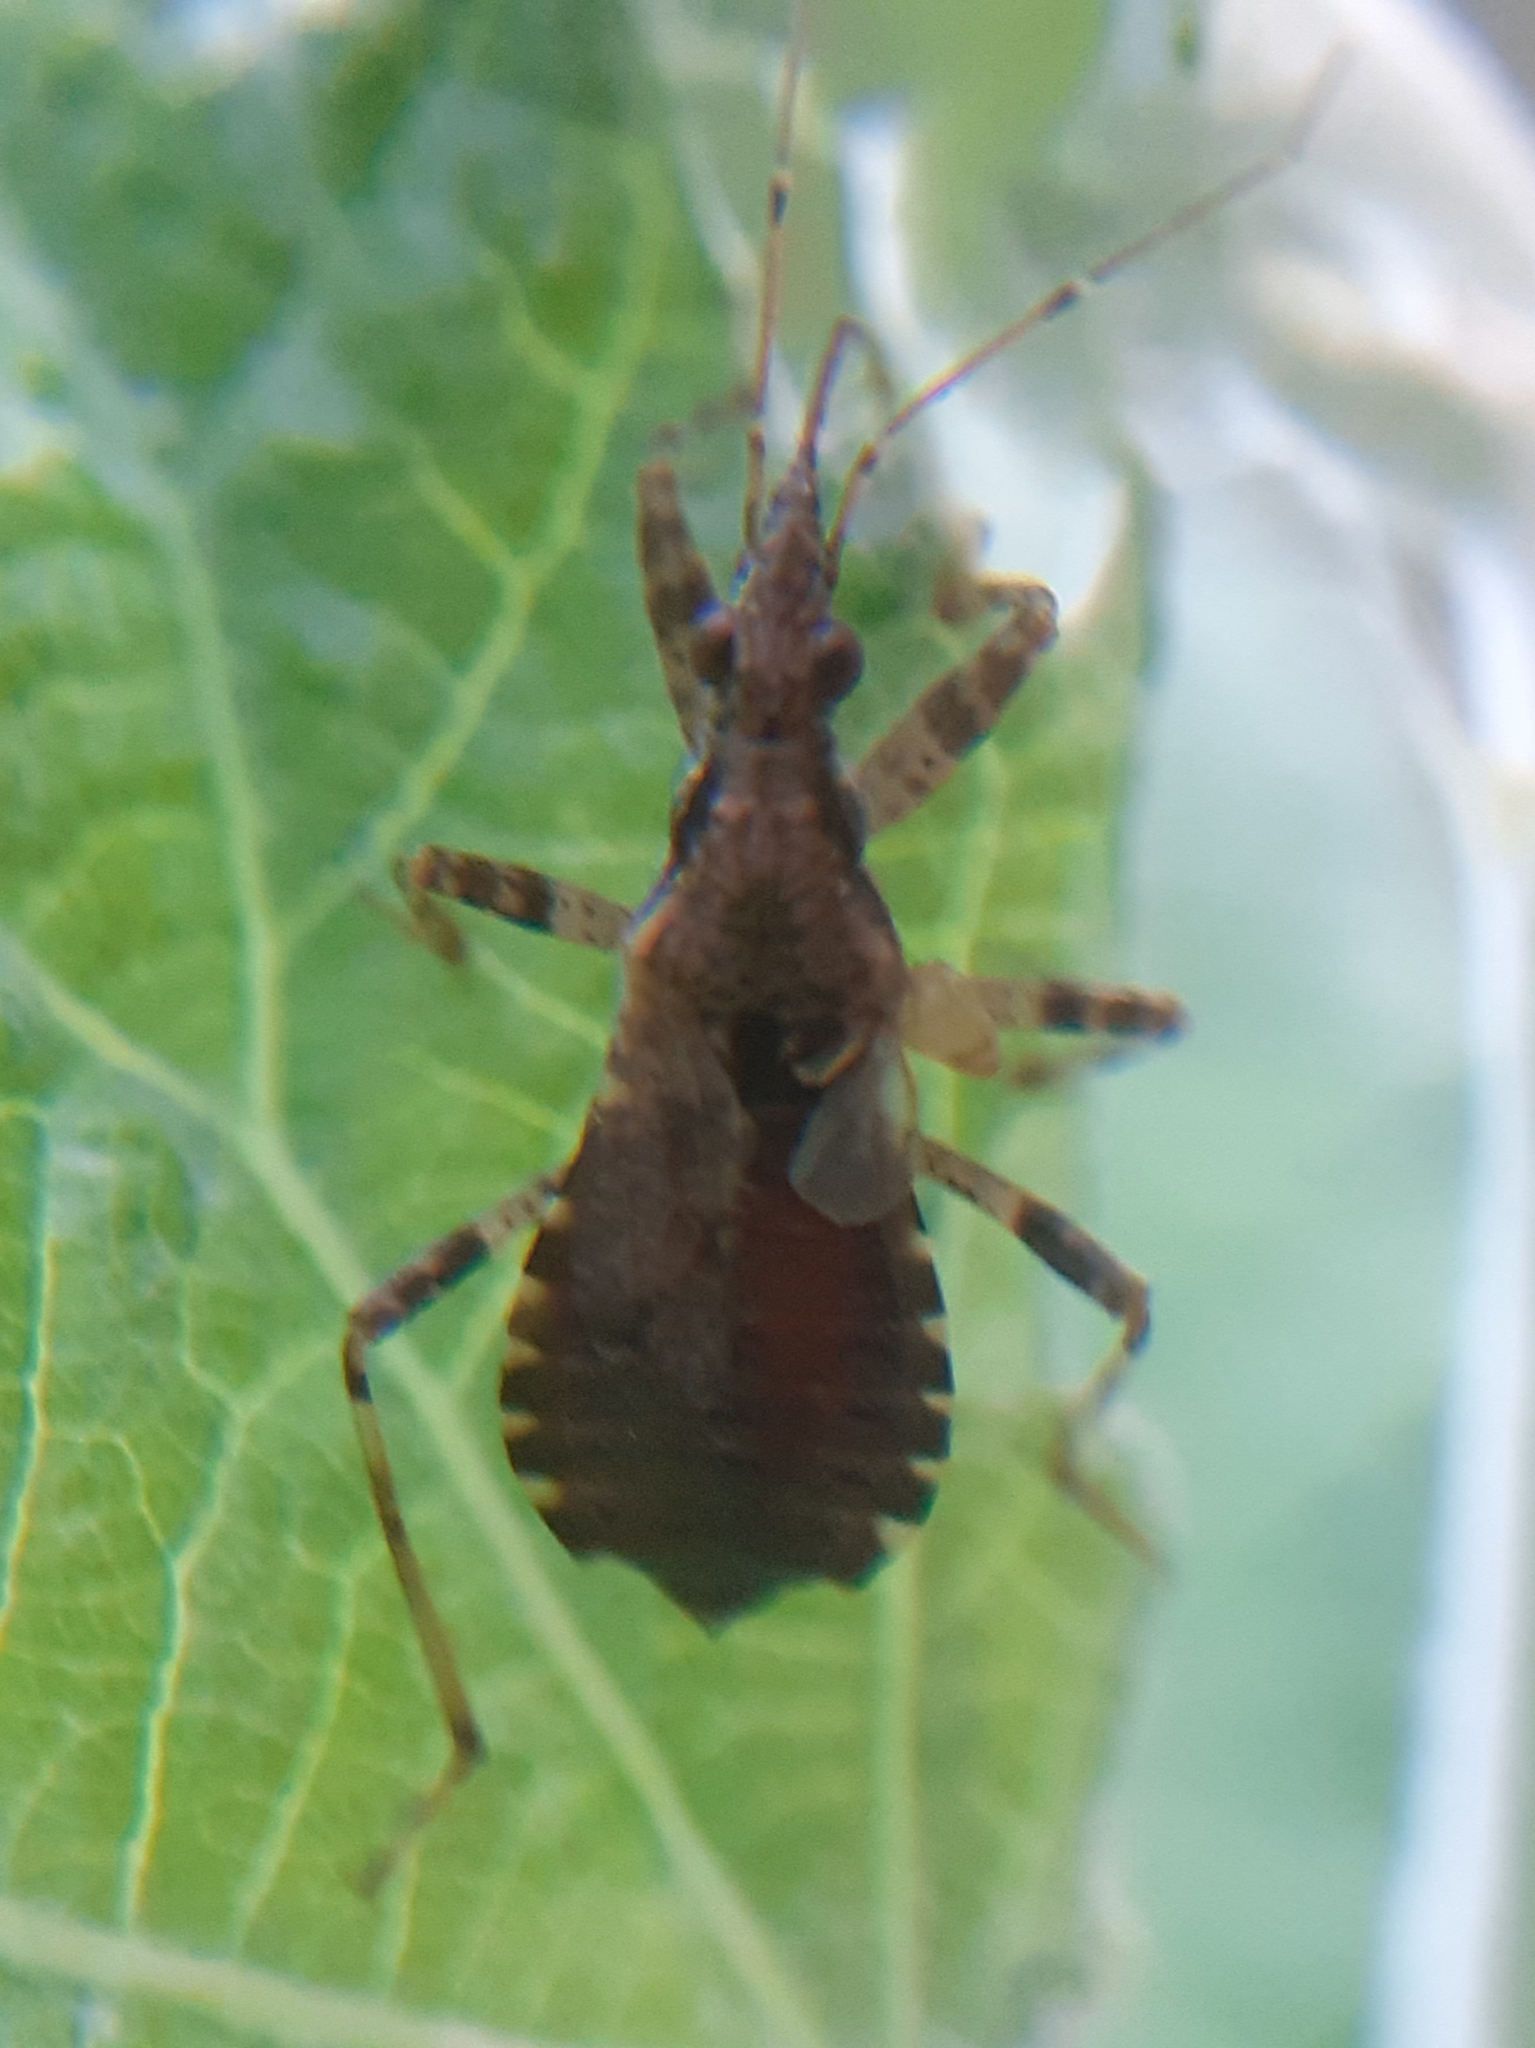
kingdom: Animalia
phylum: Arthropoda
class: Insecta
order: Hemiptera
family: Nabidae
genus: Himacerus
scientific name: Himacerus mirmicoides
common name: Ant damsel bug
